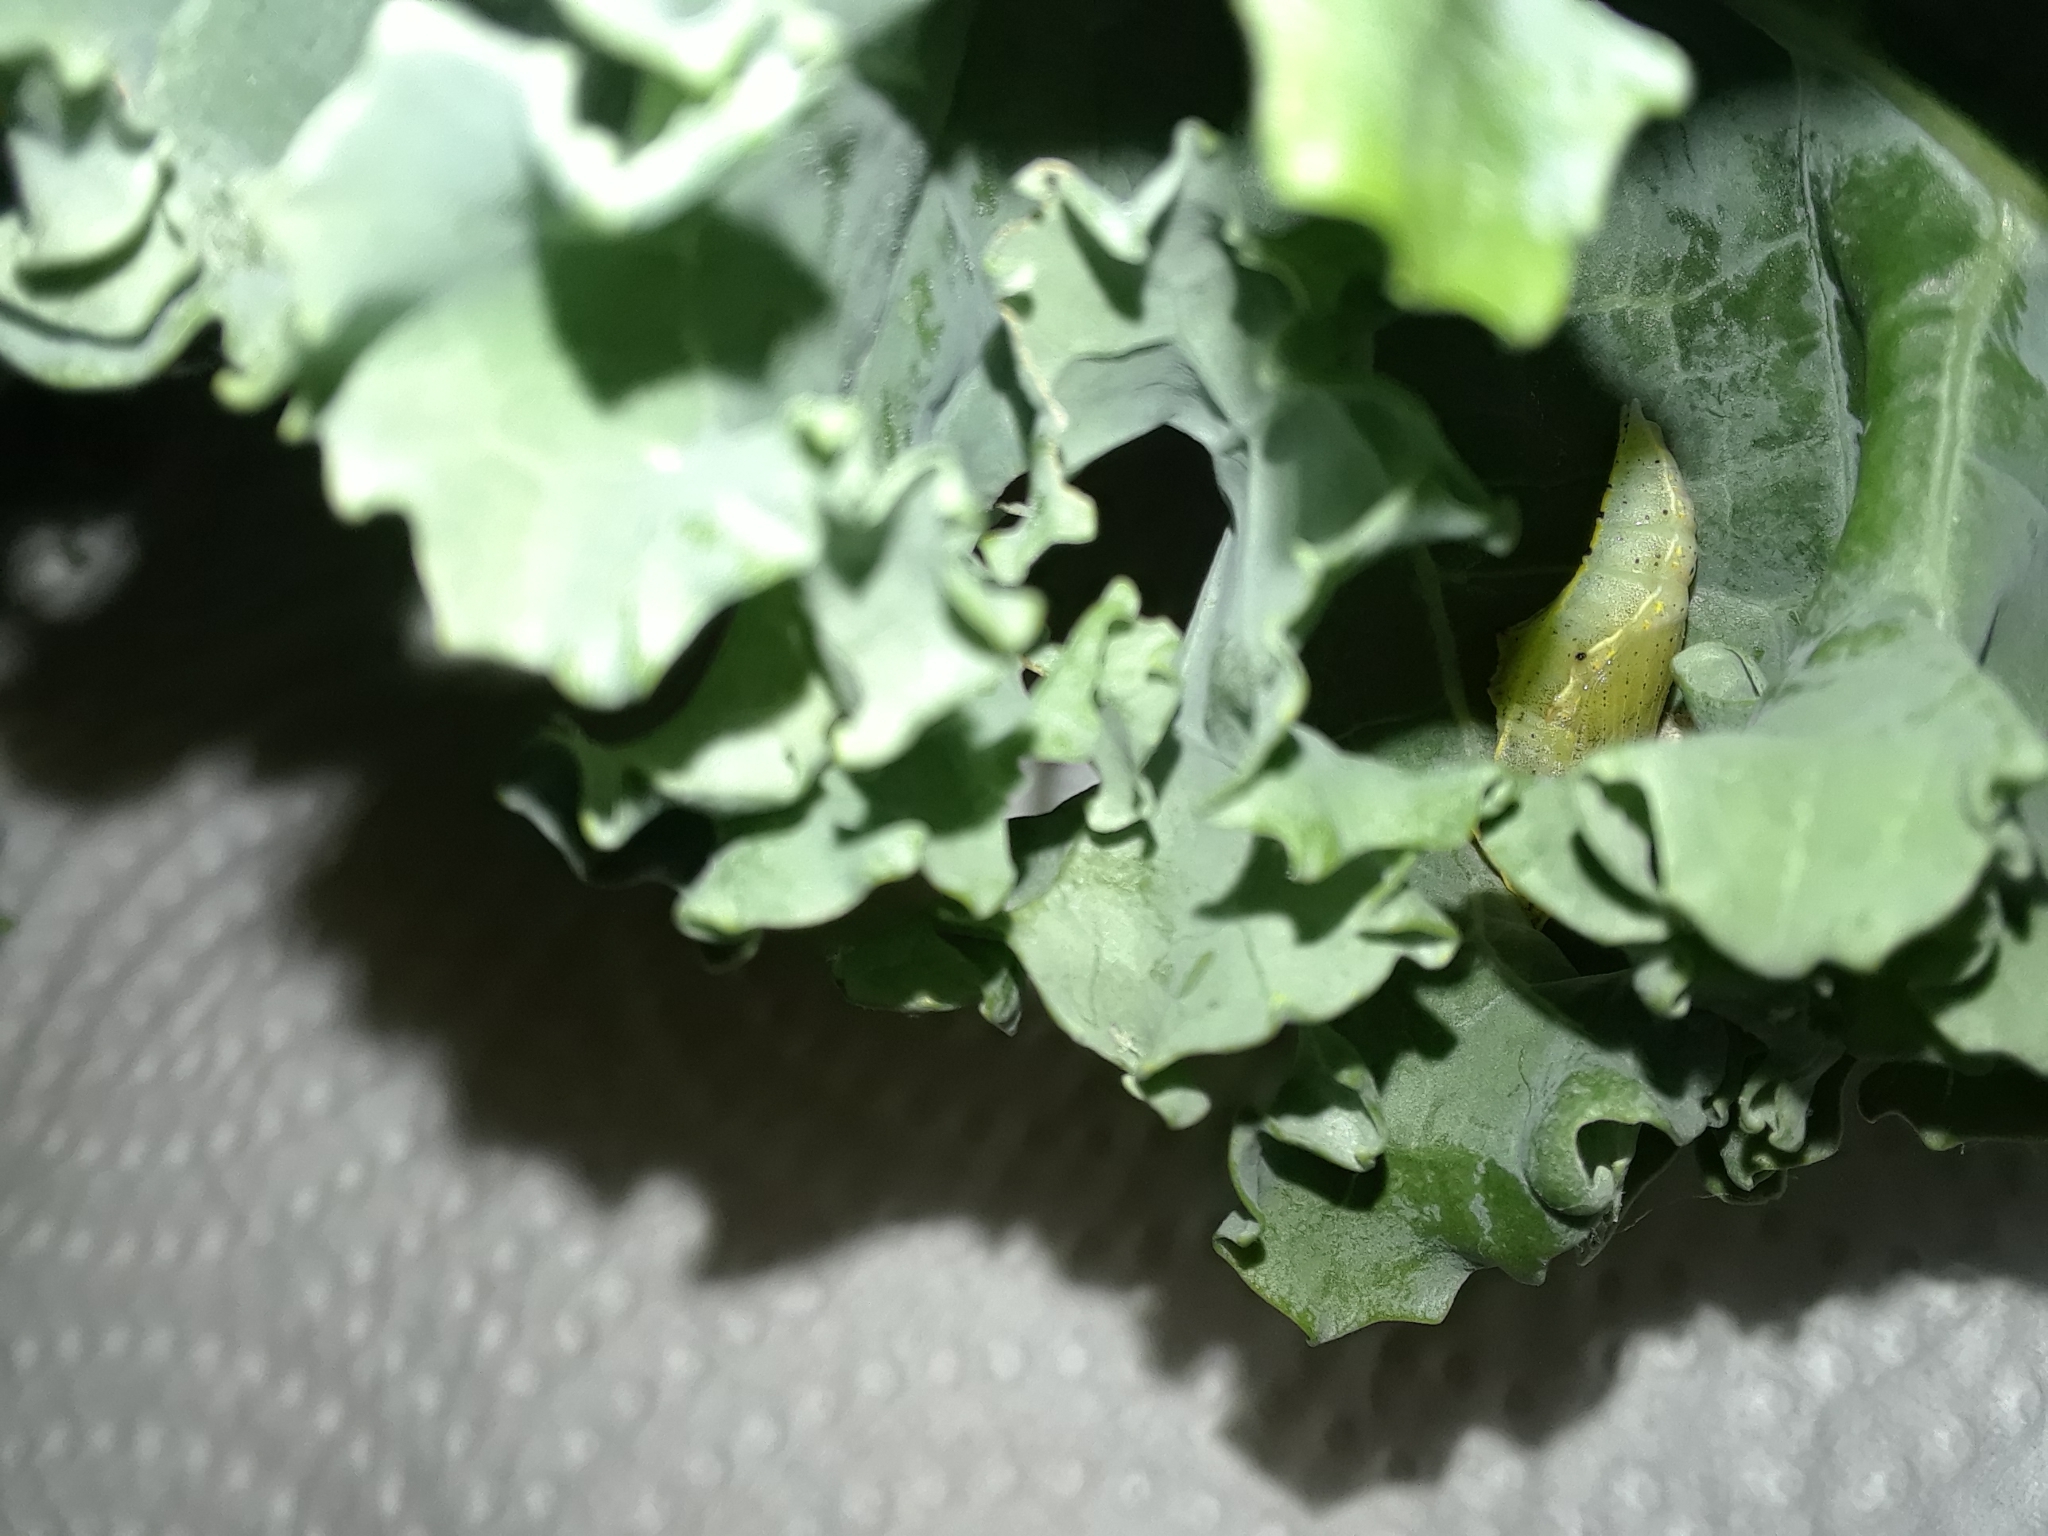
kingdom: Animalia
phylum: Arthropoda
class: Insecta
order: Lepidoptera
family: Pieridae
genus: Pieris
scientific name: Pieris rapae
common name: Small white
